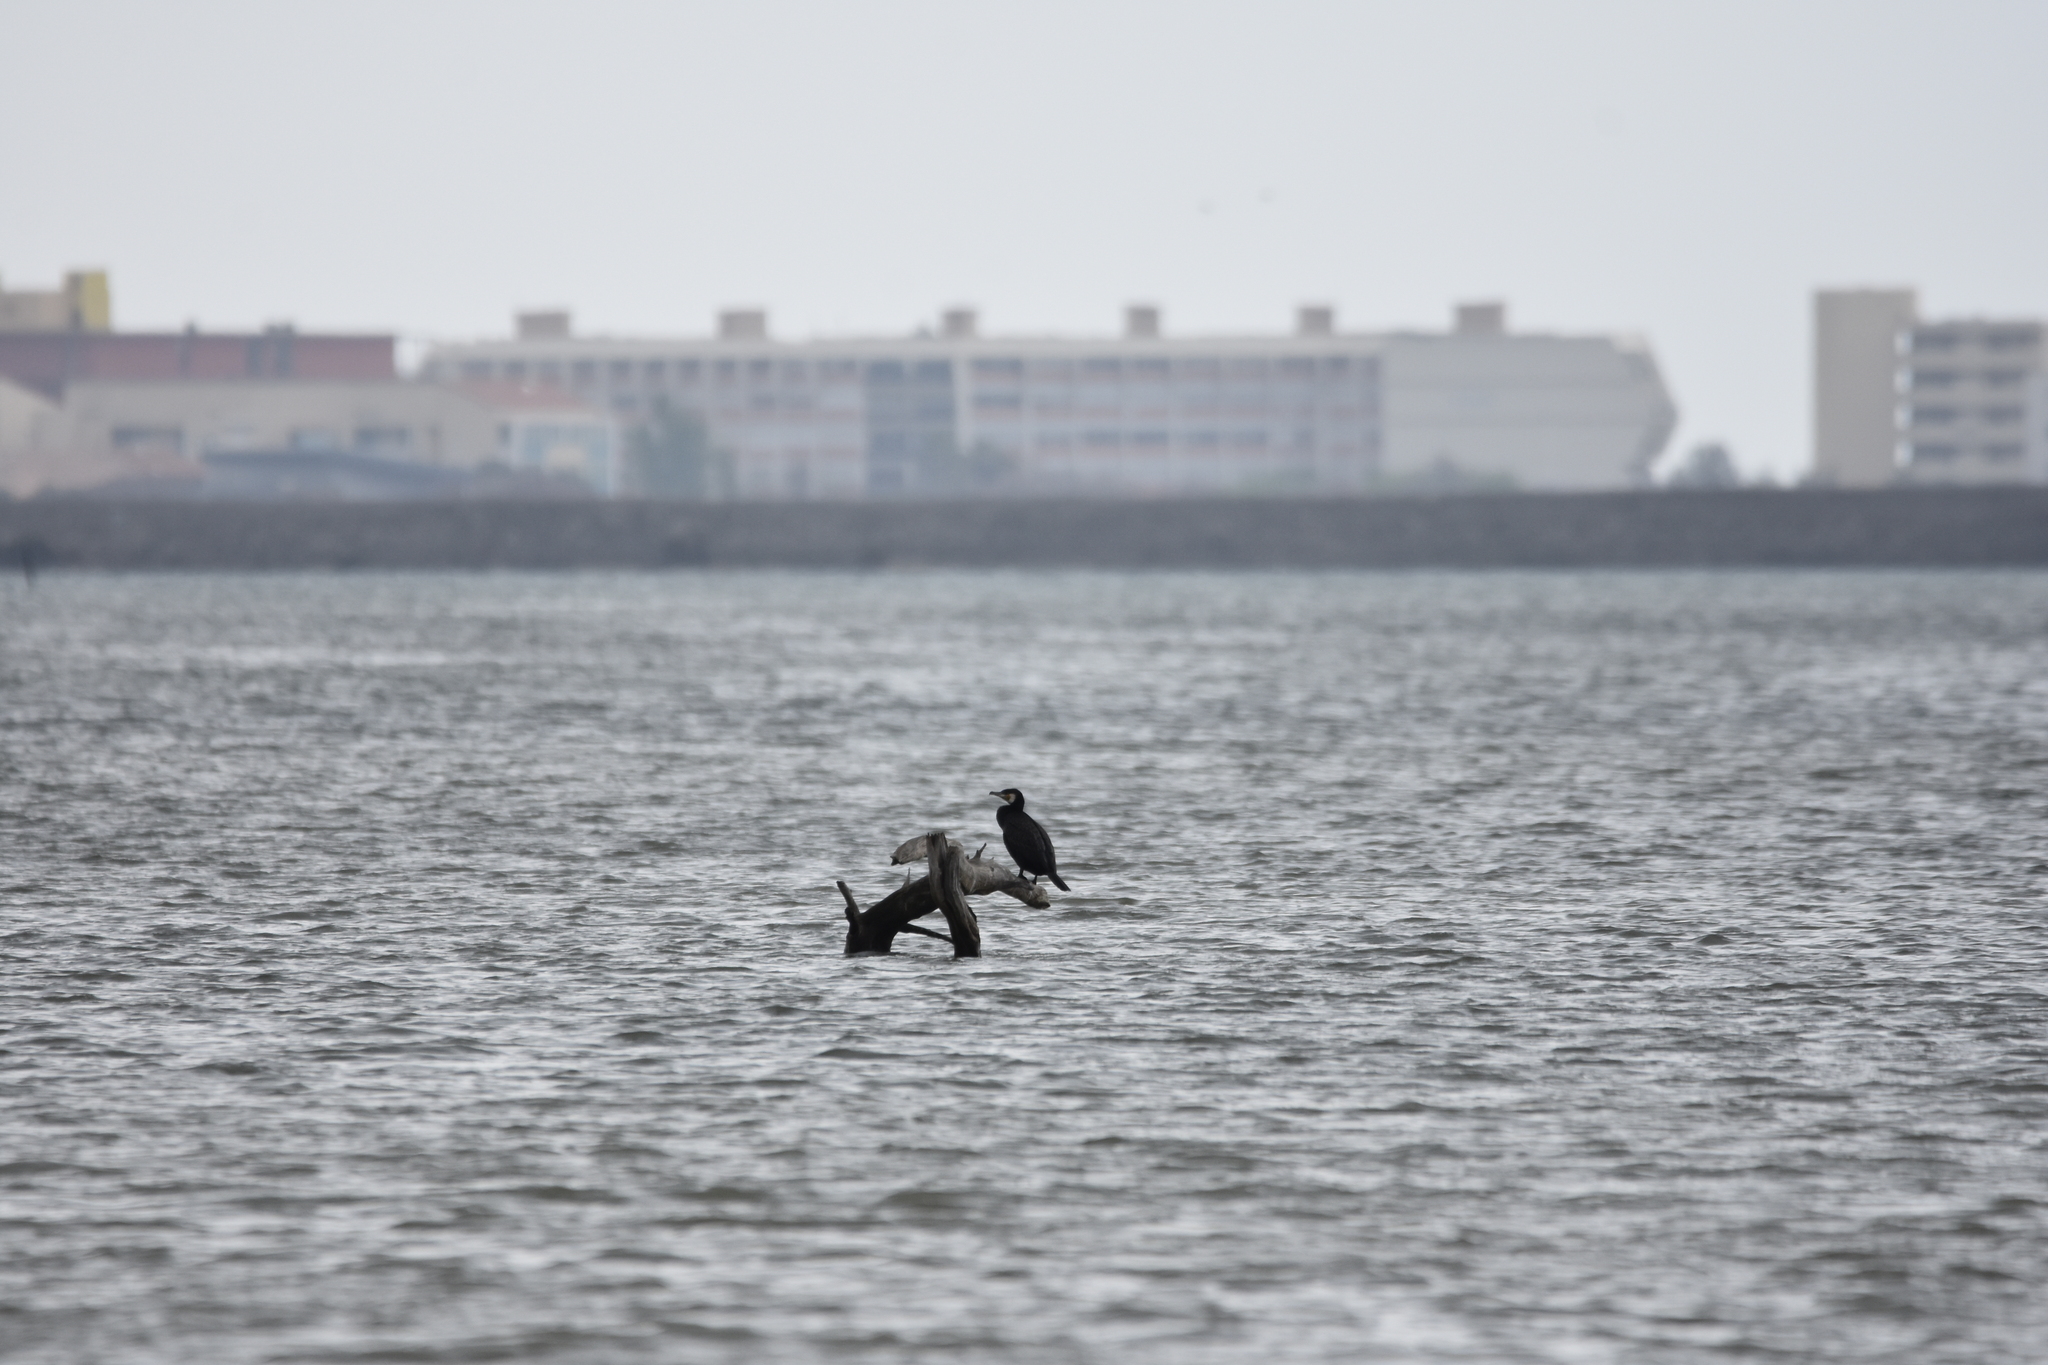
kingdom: Animalia
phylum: Chordata
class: Aves
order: Suliformes
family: Phalacrocoracidae
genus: Phalacrocorax
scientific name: Phalacrocorax carbo
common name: Great cormorant
